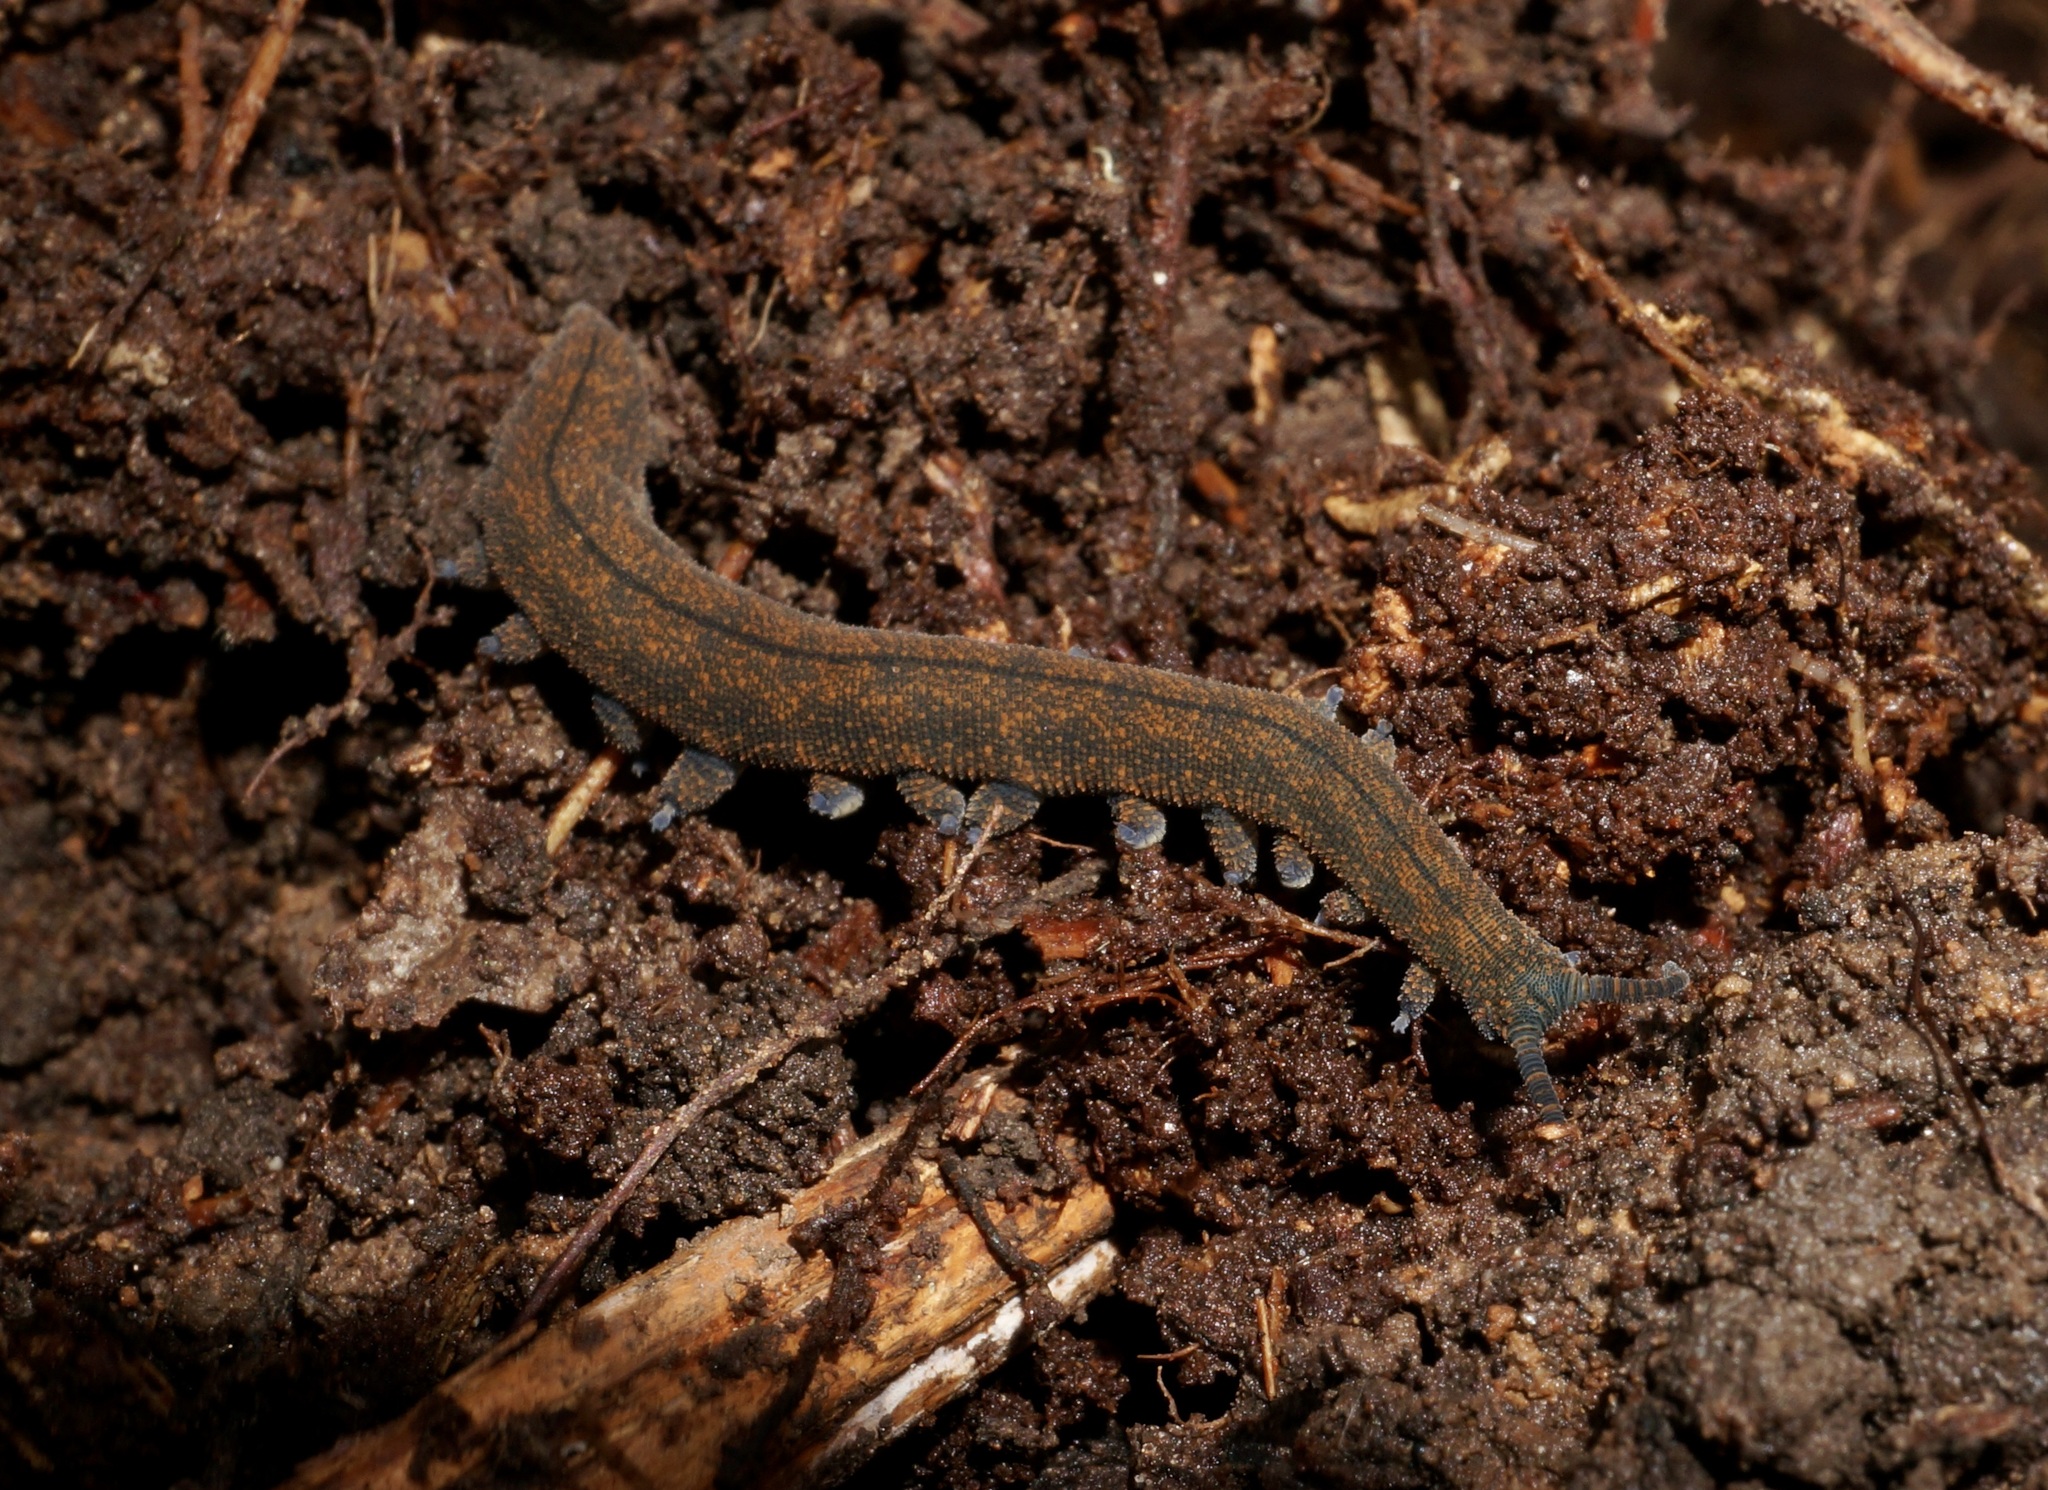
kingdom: Animalia
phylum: Onychophora
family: Peripatopsidae
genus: Peripatoides
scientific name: Peripatoides novaezealandiae
